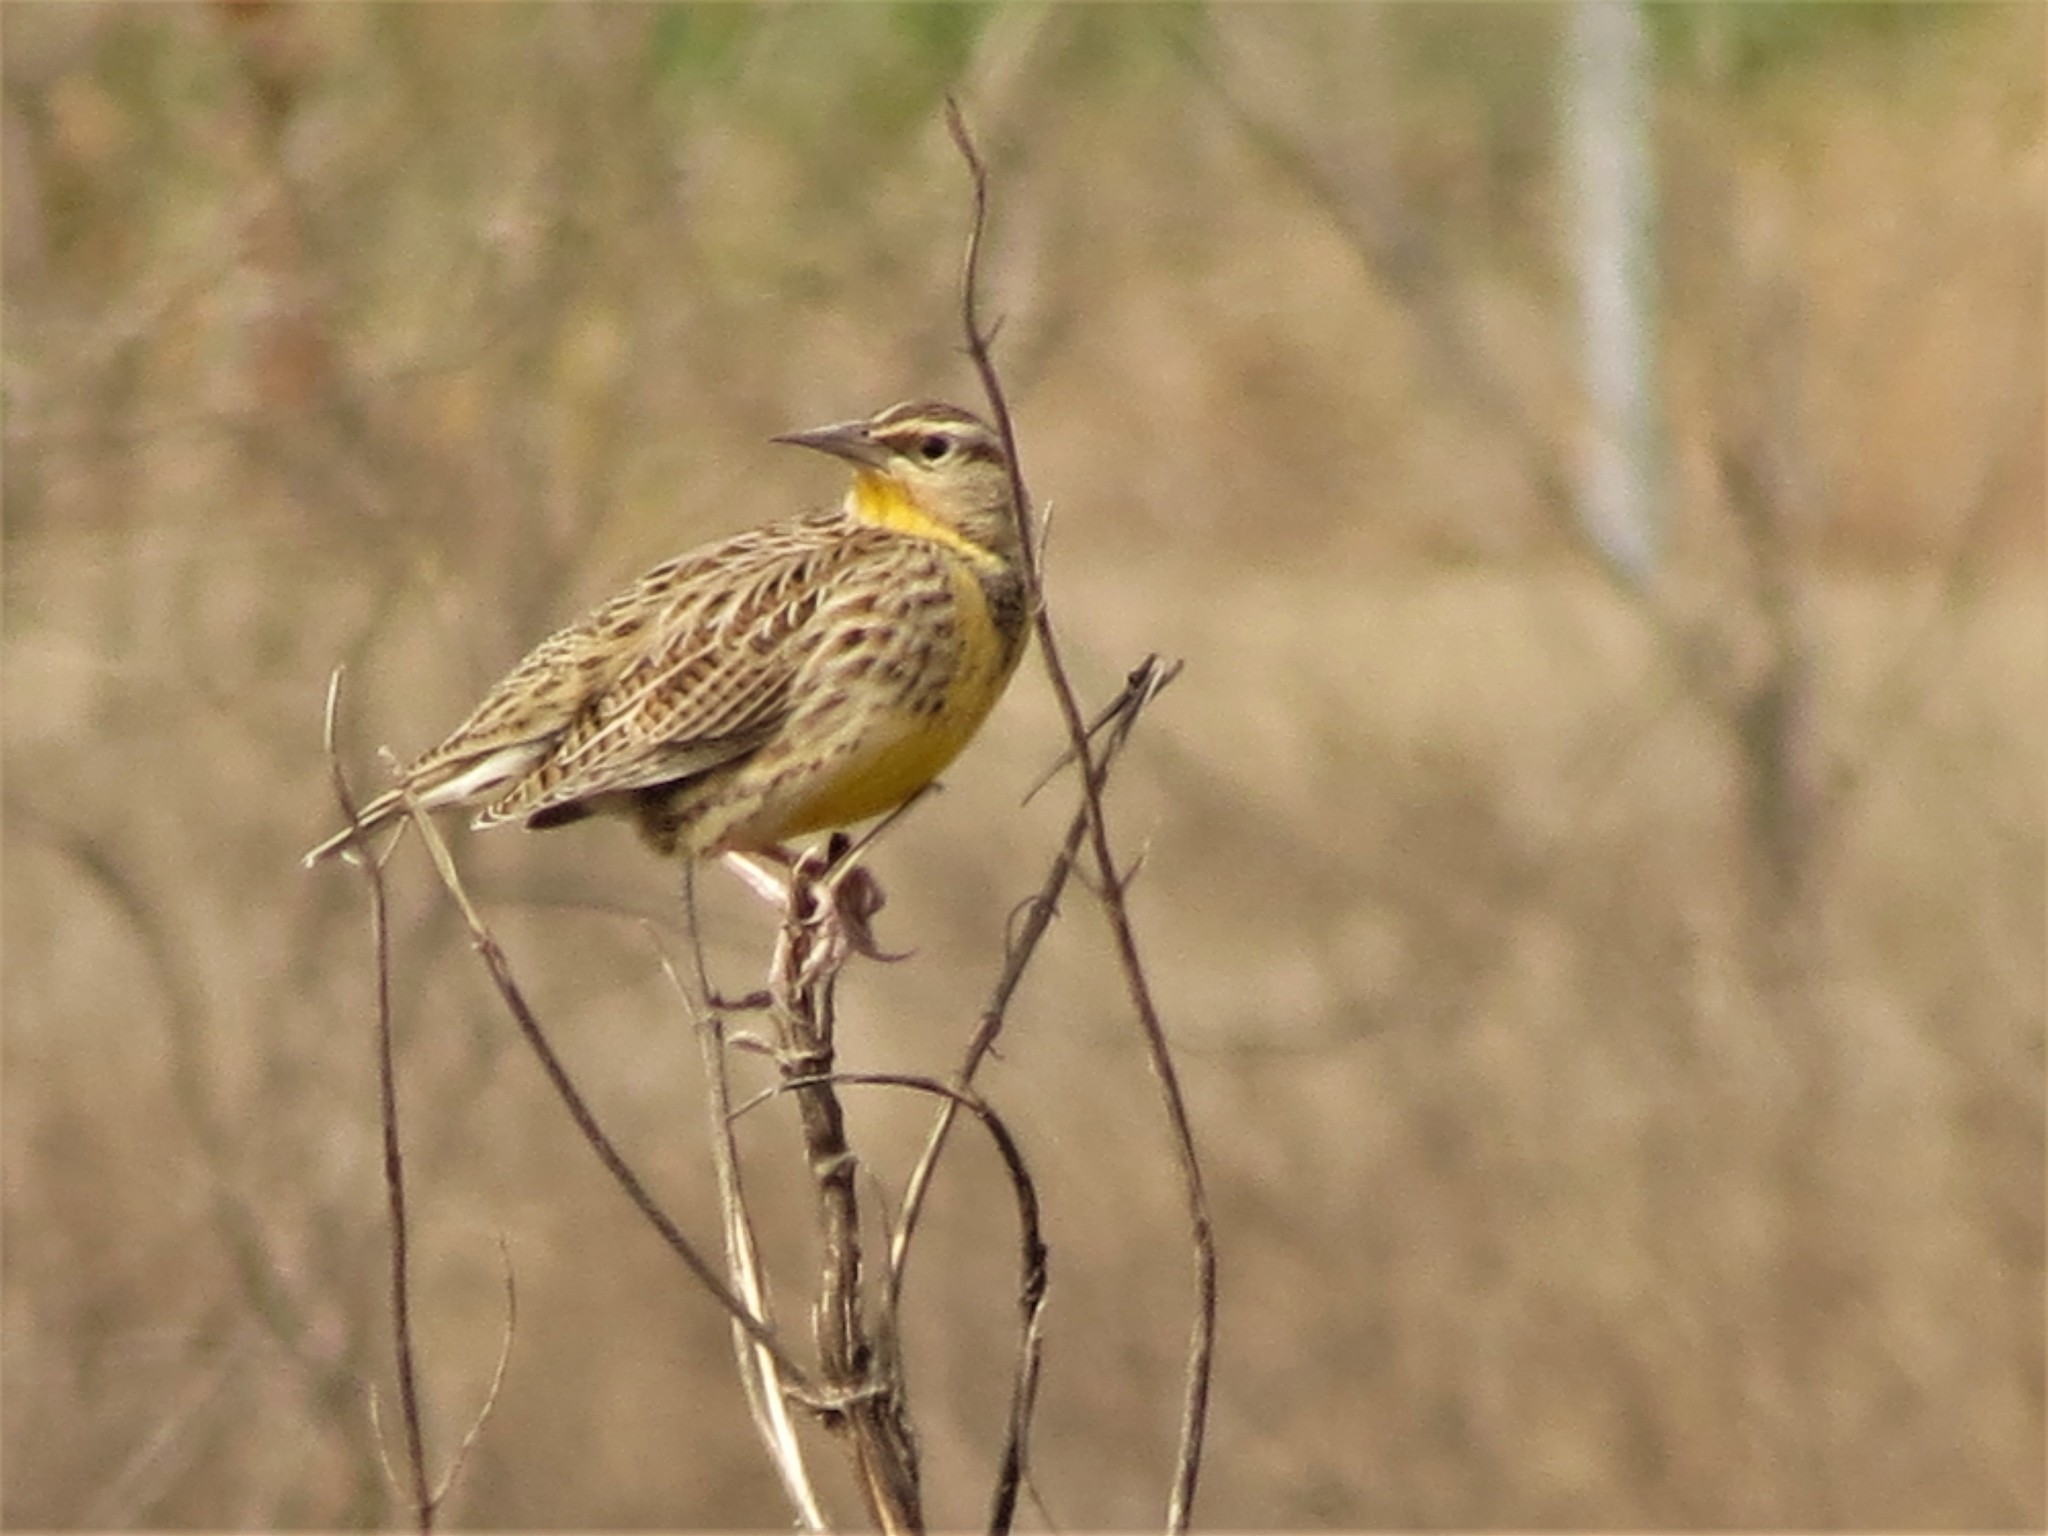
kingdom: Animalia
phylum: Chordata
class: Aves
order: Passeriformes
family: Icteridae
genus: Sturnella
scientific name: Sturnella magna
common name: Eastern meadowlark
